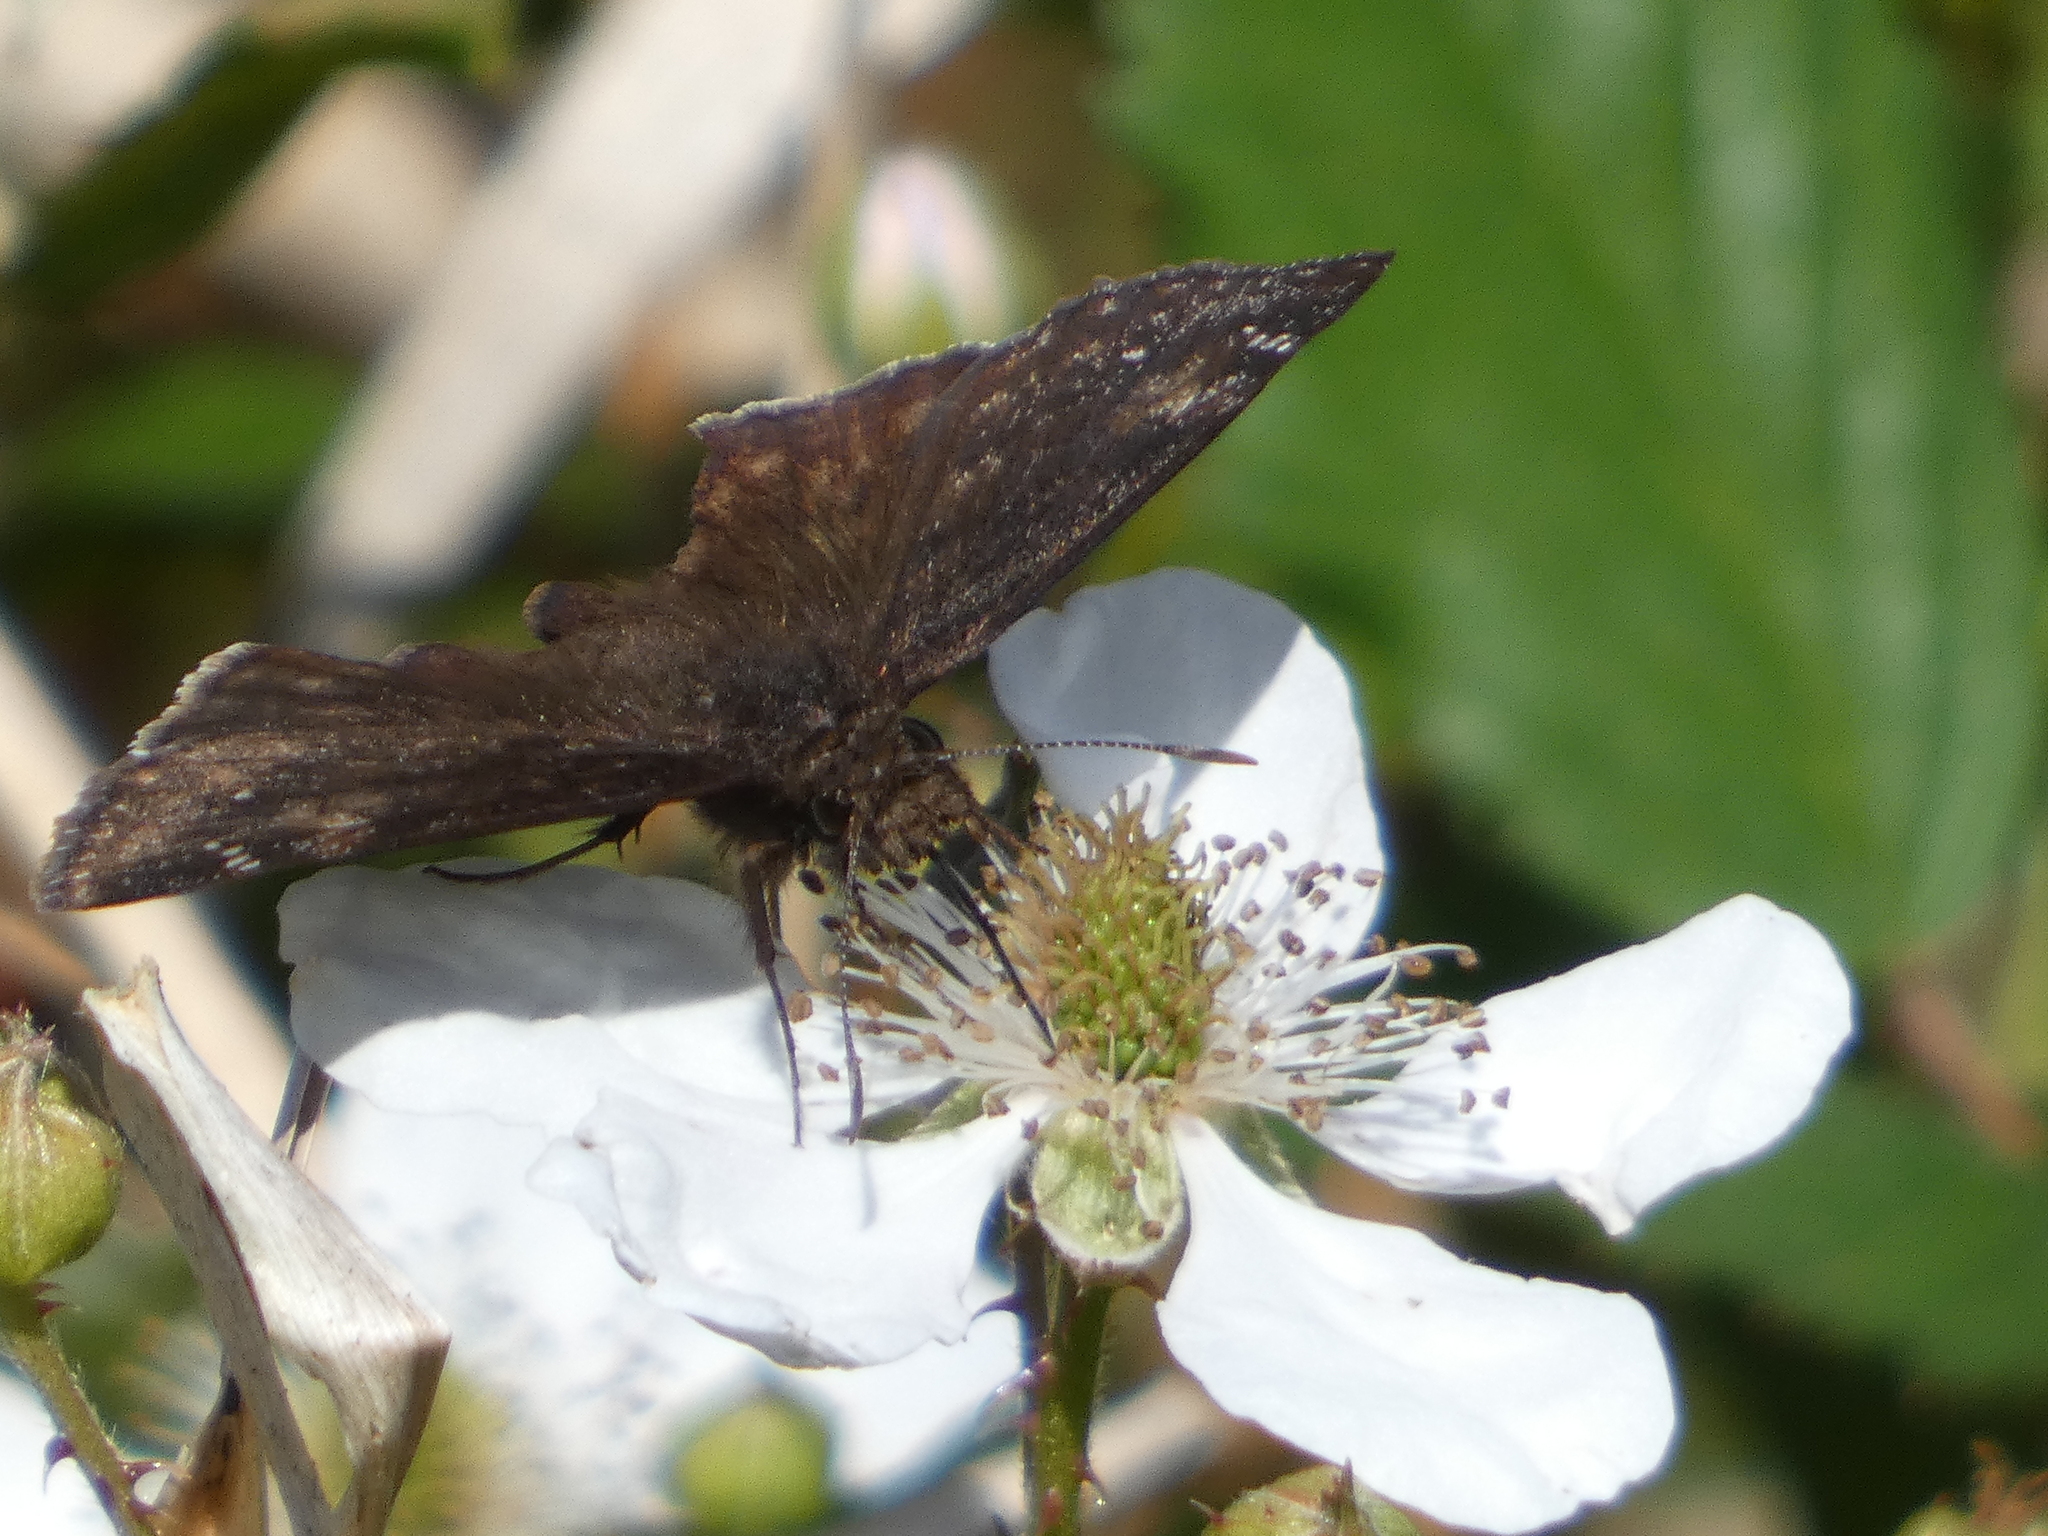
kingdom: Animalia
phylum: Arthropoda
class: Insecta
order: Lepidoptera
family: Hesperiidae
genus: Erynnis
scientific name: Erynnis zarucco
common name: Zarucco duskywing
